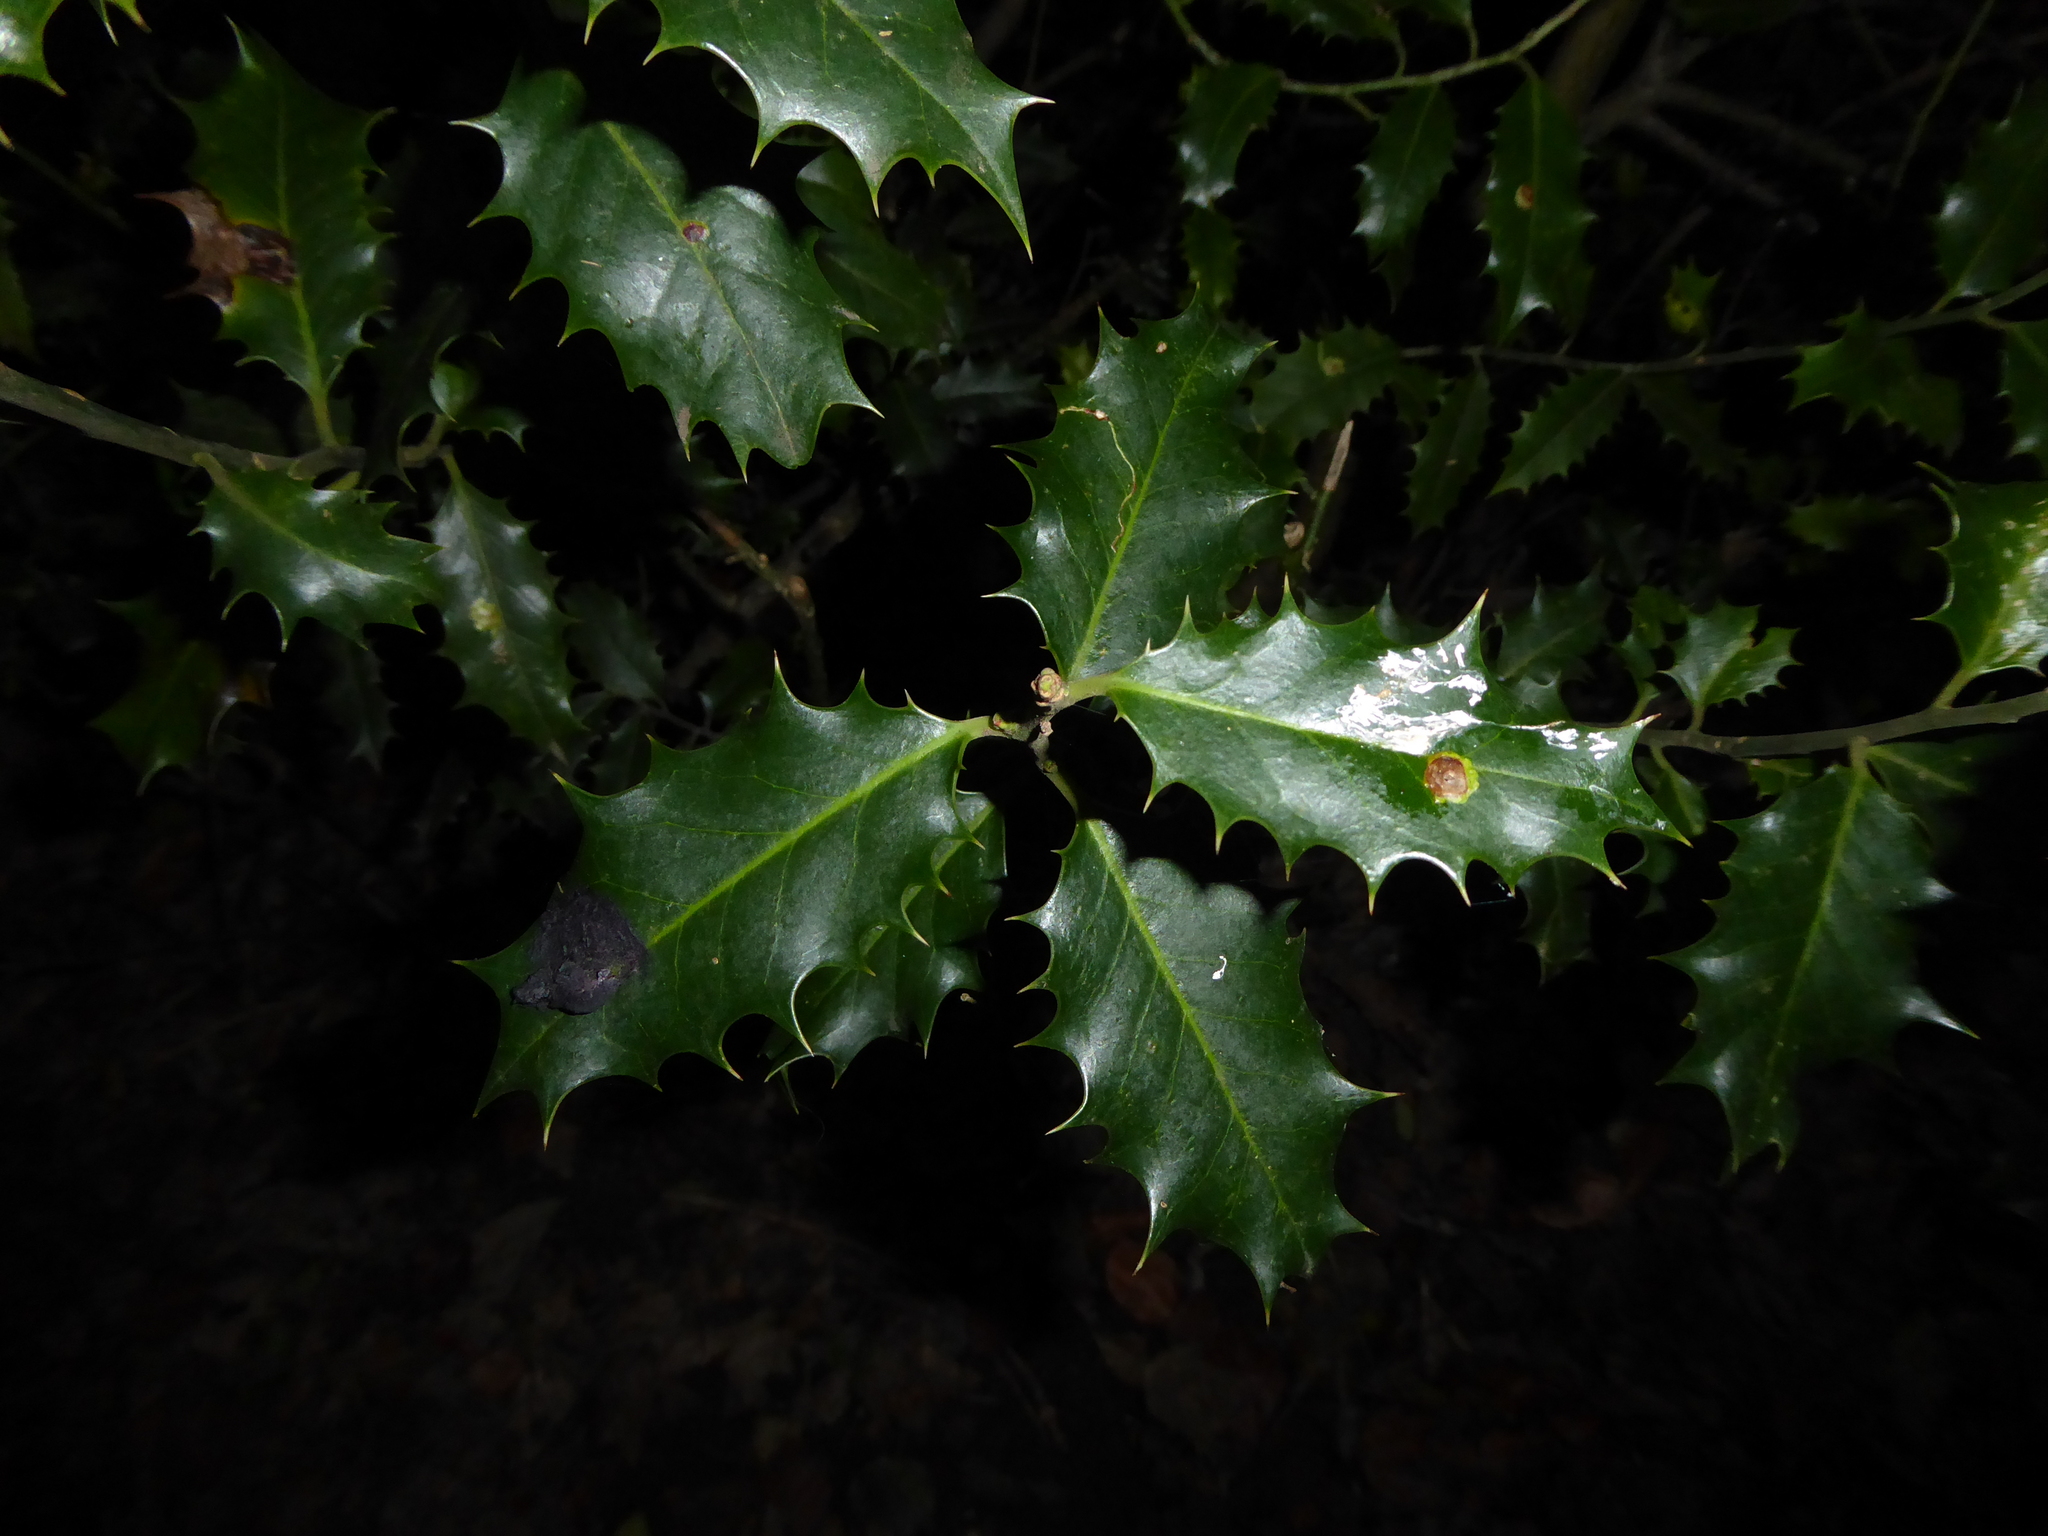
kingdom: Plantae
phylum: Tracheophyta
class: Magnoliopsida
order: Aquifoliales
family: Aquifoliaceae
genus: Ilex
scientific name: Ilex aquifolium
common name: English holly
